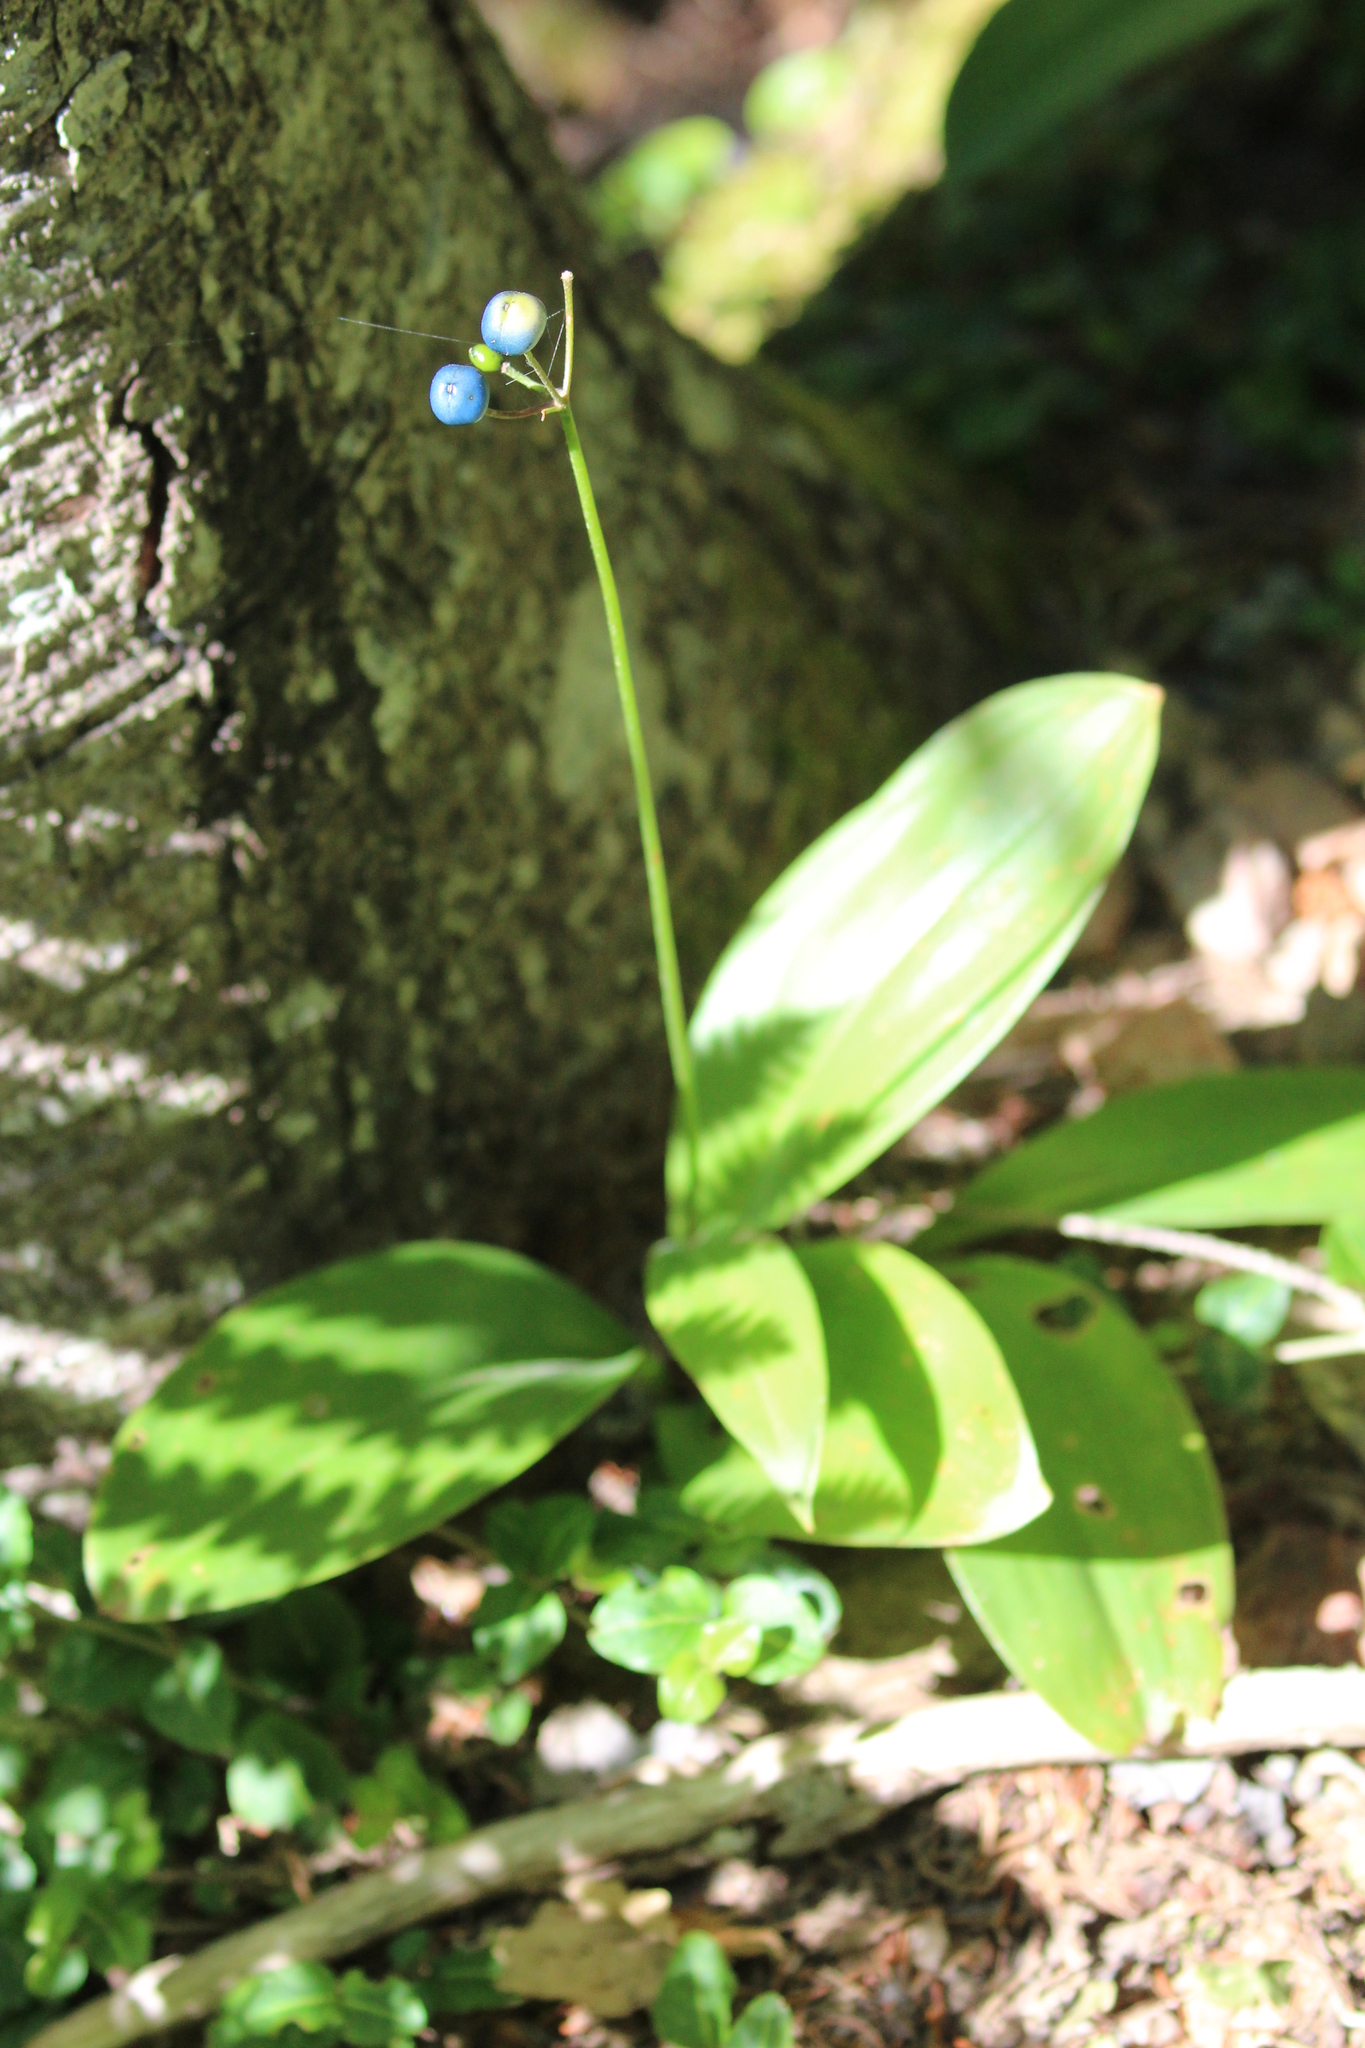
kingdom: Plantae
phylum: Tracheophyta
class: Liliopsida
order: Liliales
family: Liliaceae
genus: Clintonia
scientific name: Clintonia borealis
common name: Yellow clintonia
